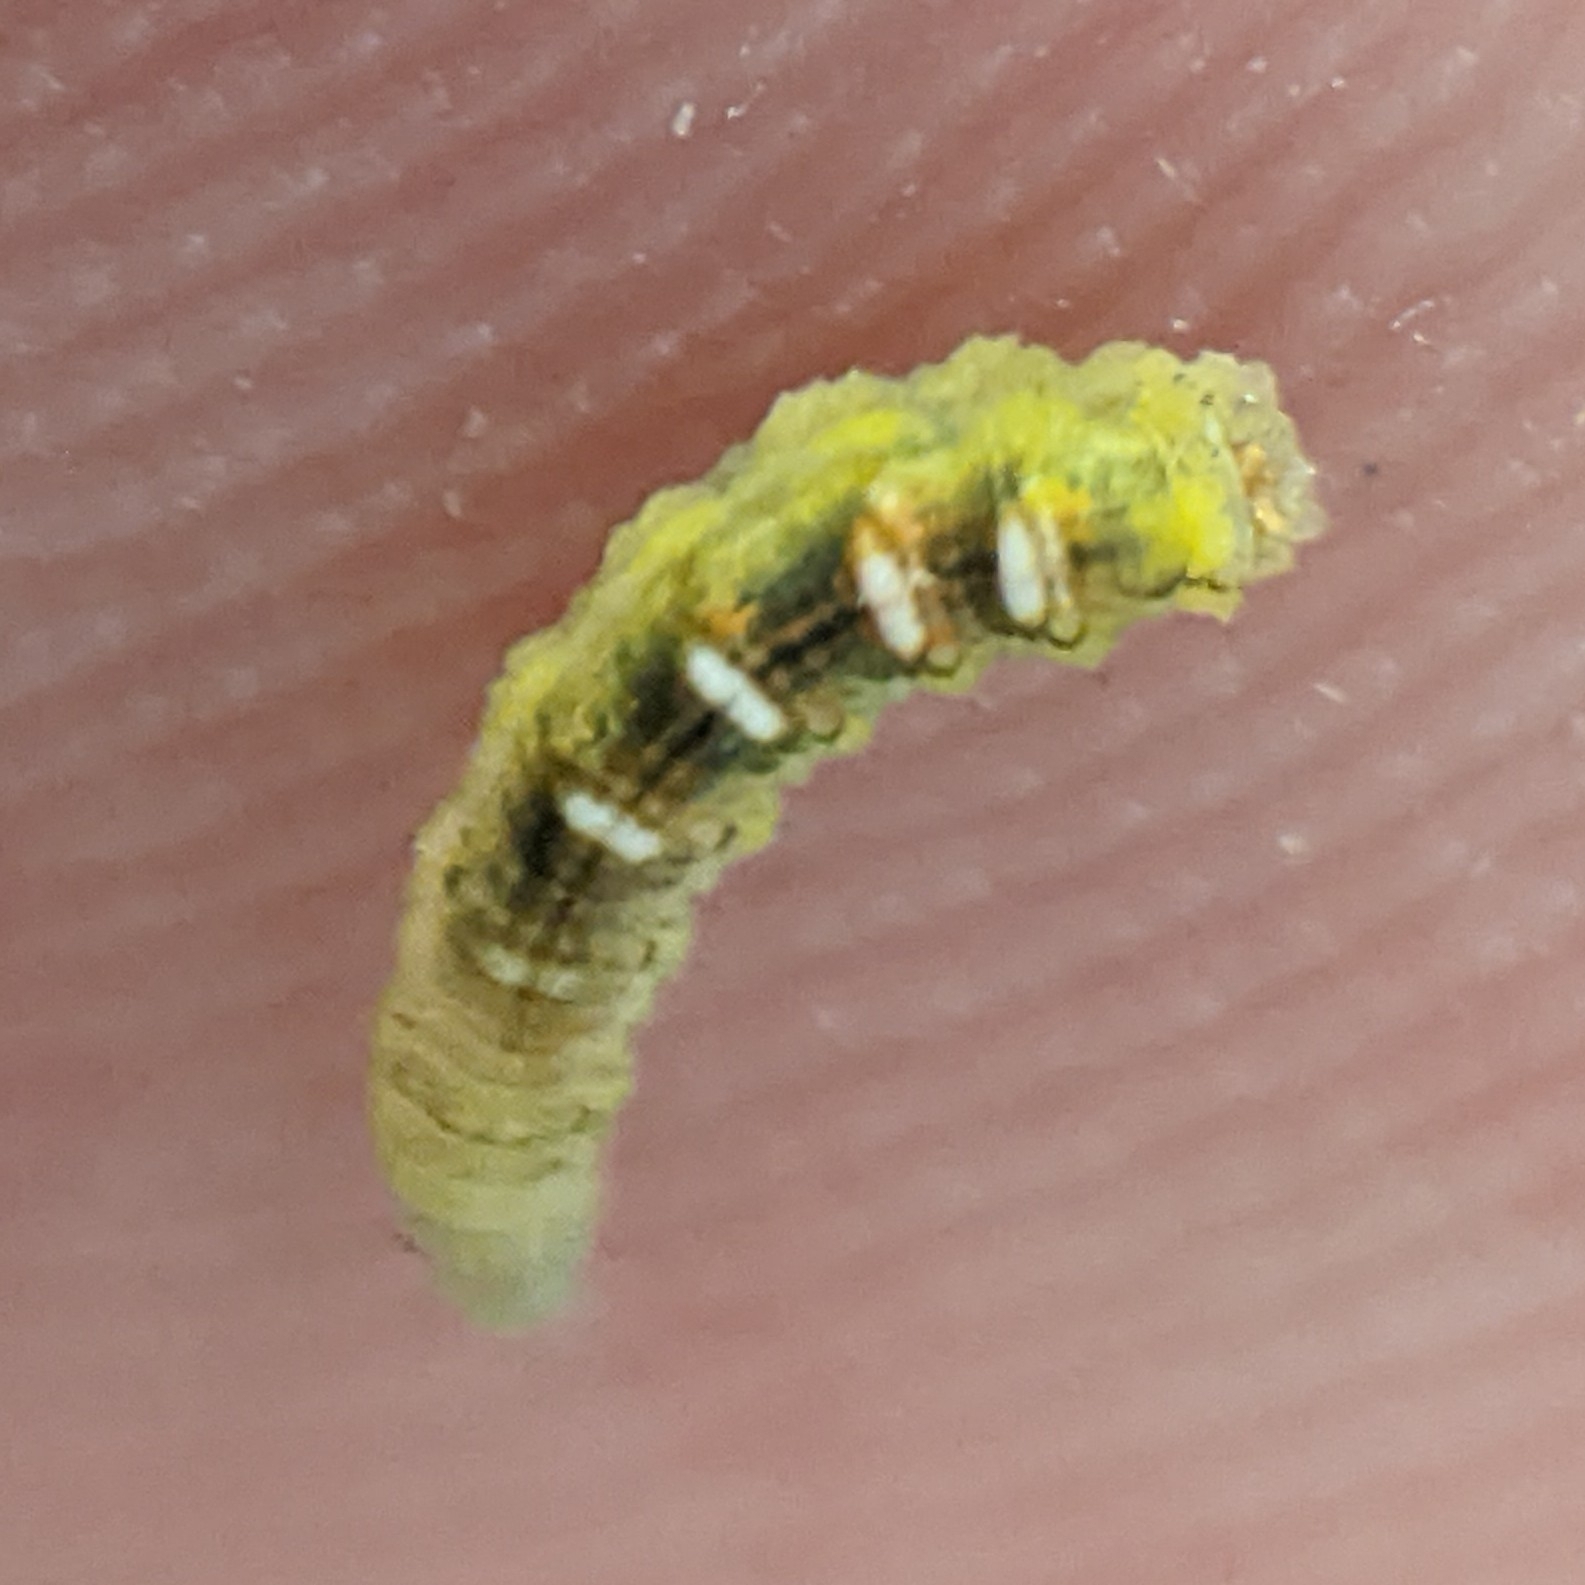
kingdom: Animalia
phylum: Arthropoda
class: Insecta
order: Diptera
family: Syrphidae
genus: Eupeodes
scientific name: Eupeodes pomus
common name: Short-tailed aphideater
